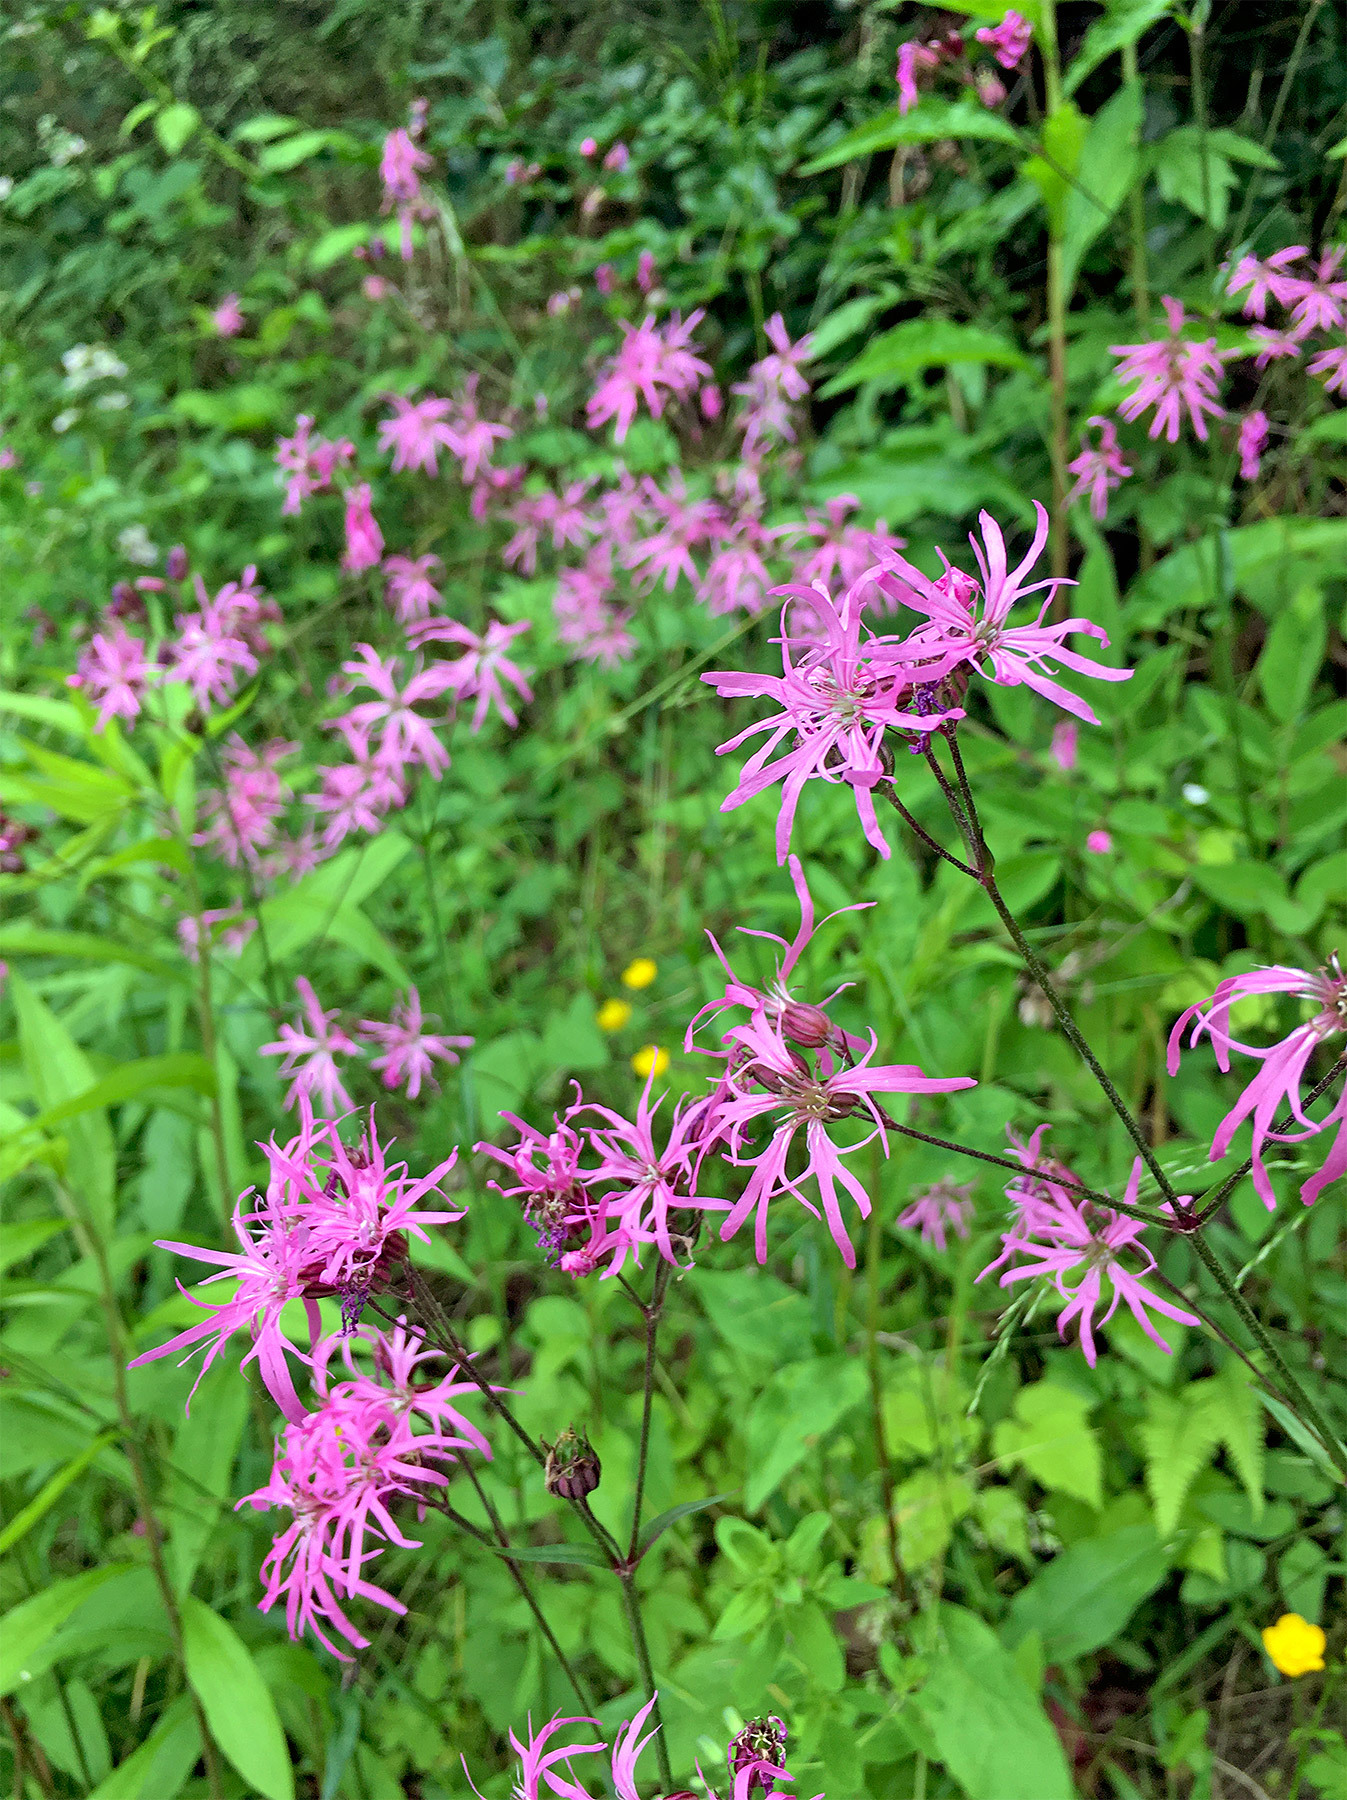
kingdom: Plantae
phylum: Tracheophyta
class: Magnoliopsida
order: Caryophyllales
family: Caryophyllaceae
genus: Silene
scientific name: Silene flos-cuculi
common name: Ragged-robin
